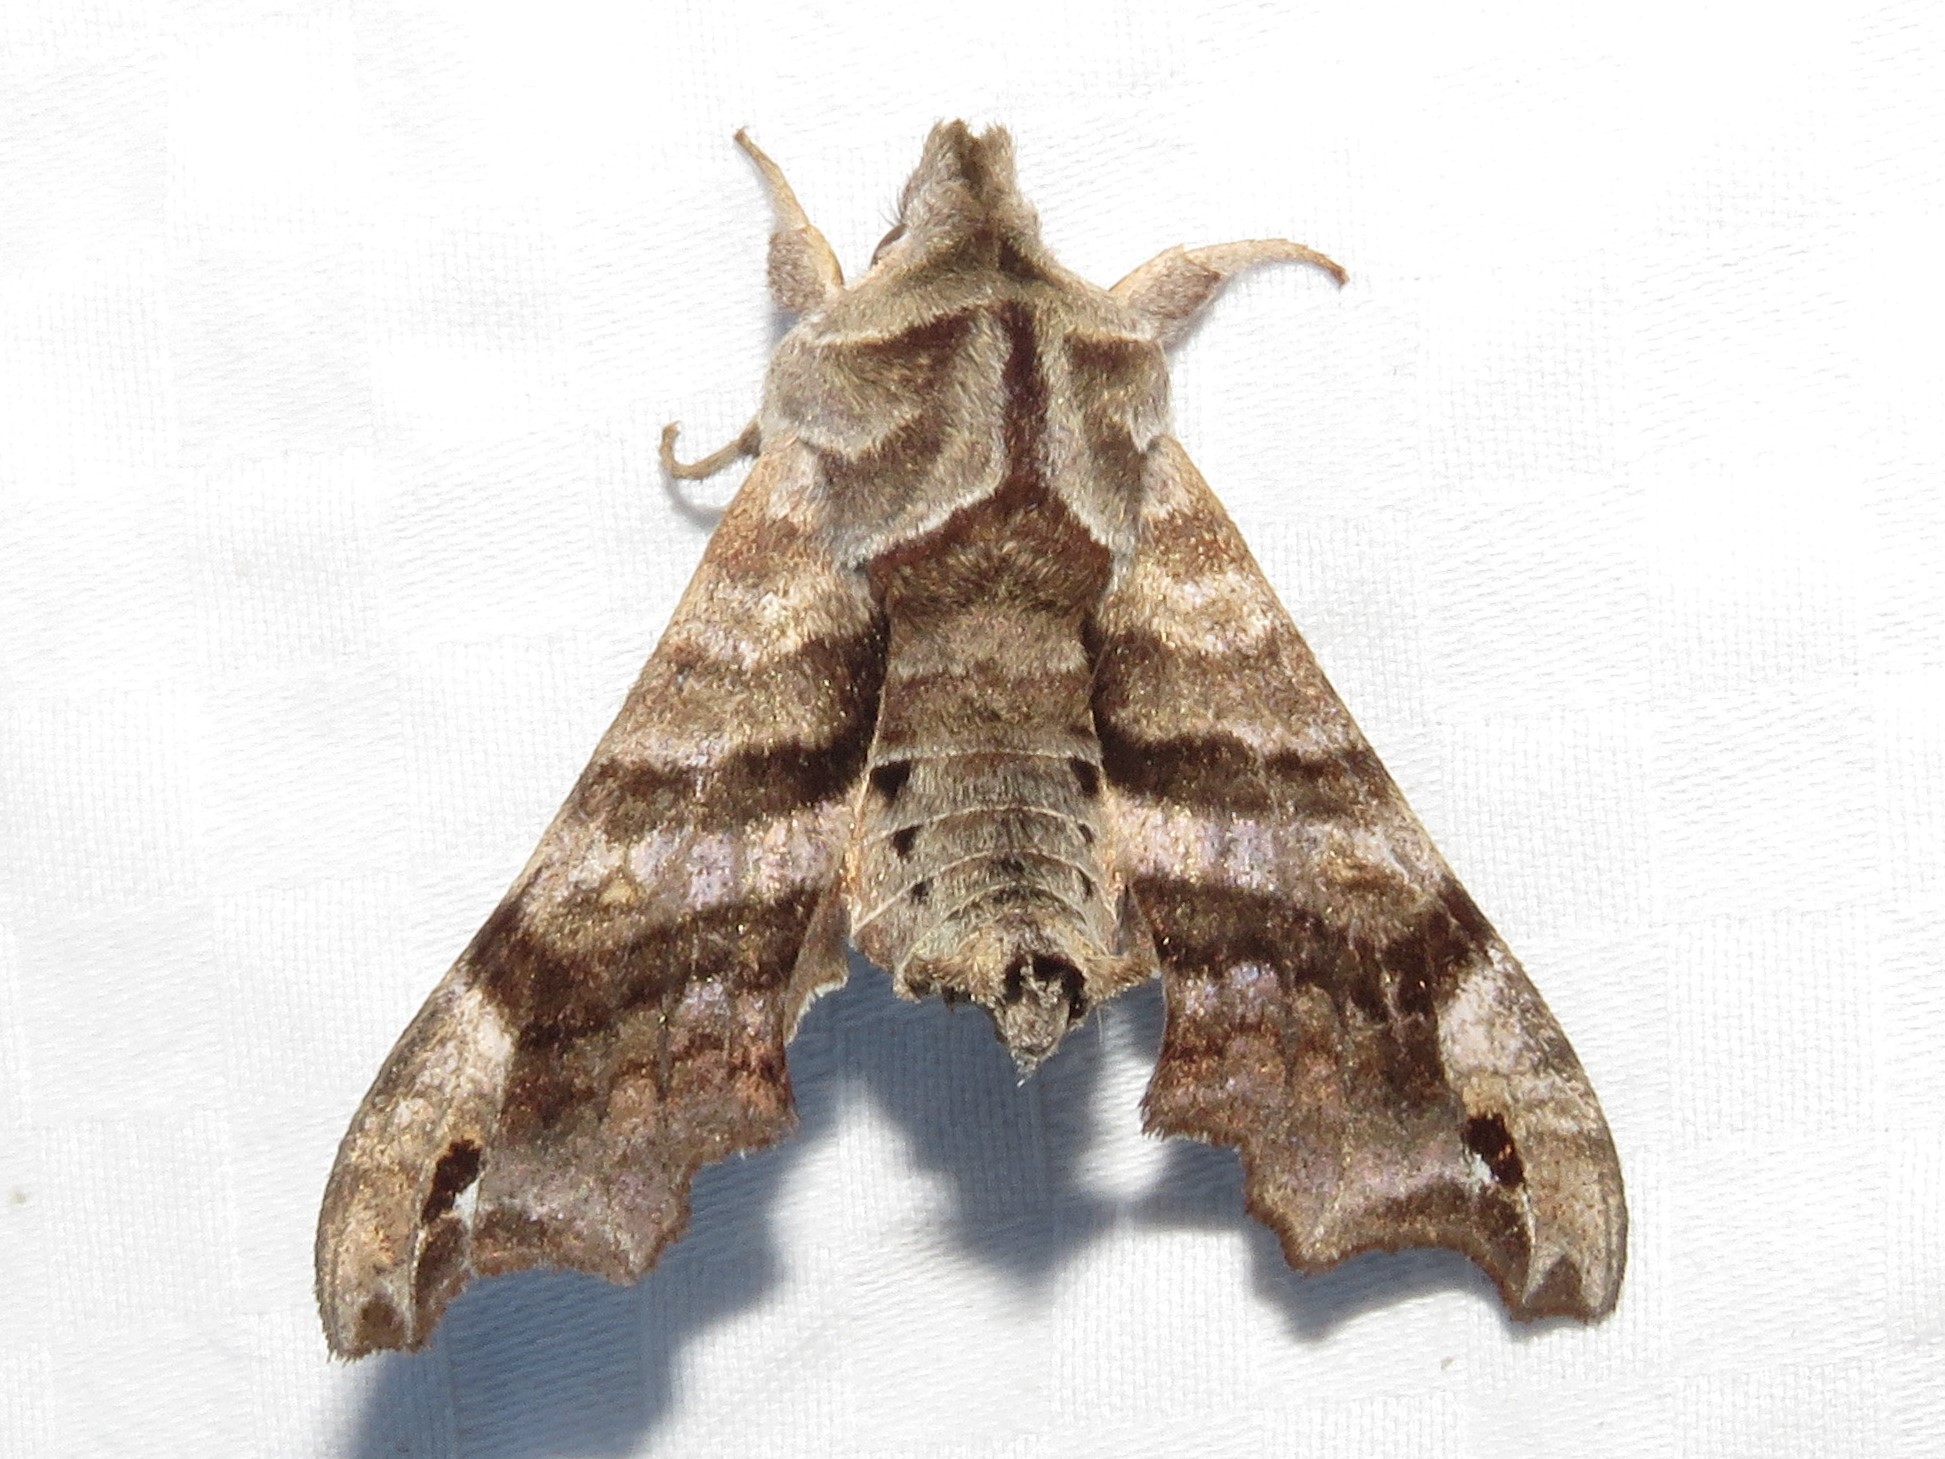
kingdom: Animalia
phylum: Arthropoda
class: Insecta
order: Lepidoptera
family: Sphingidae
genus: Deidamia
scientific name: Deidamia inscriptum
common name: Lettered sphinx
